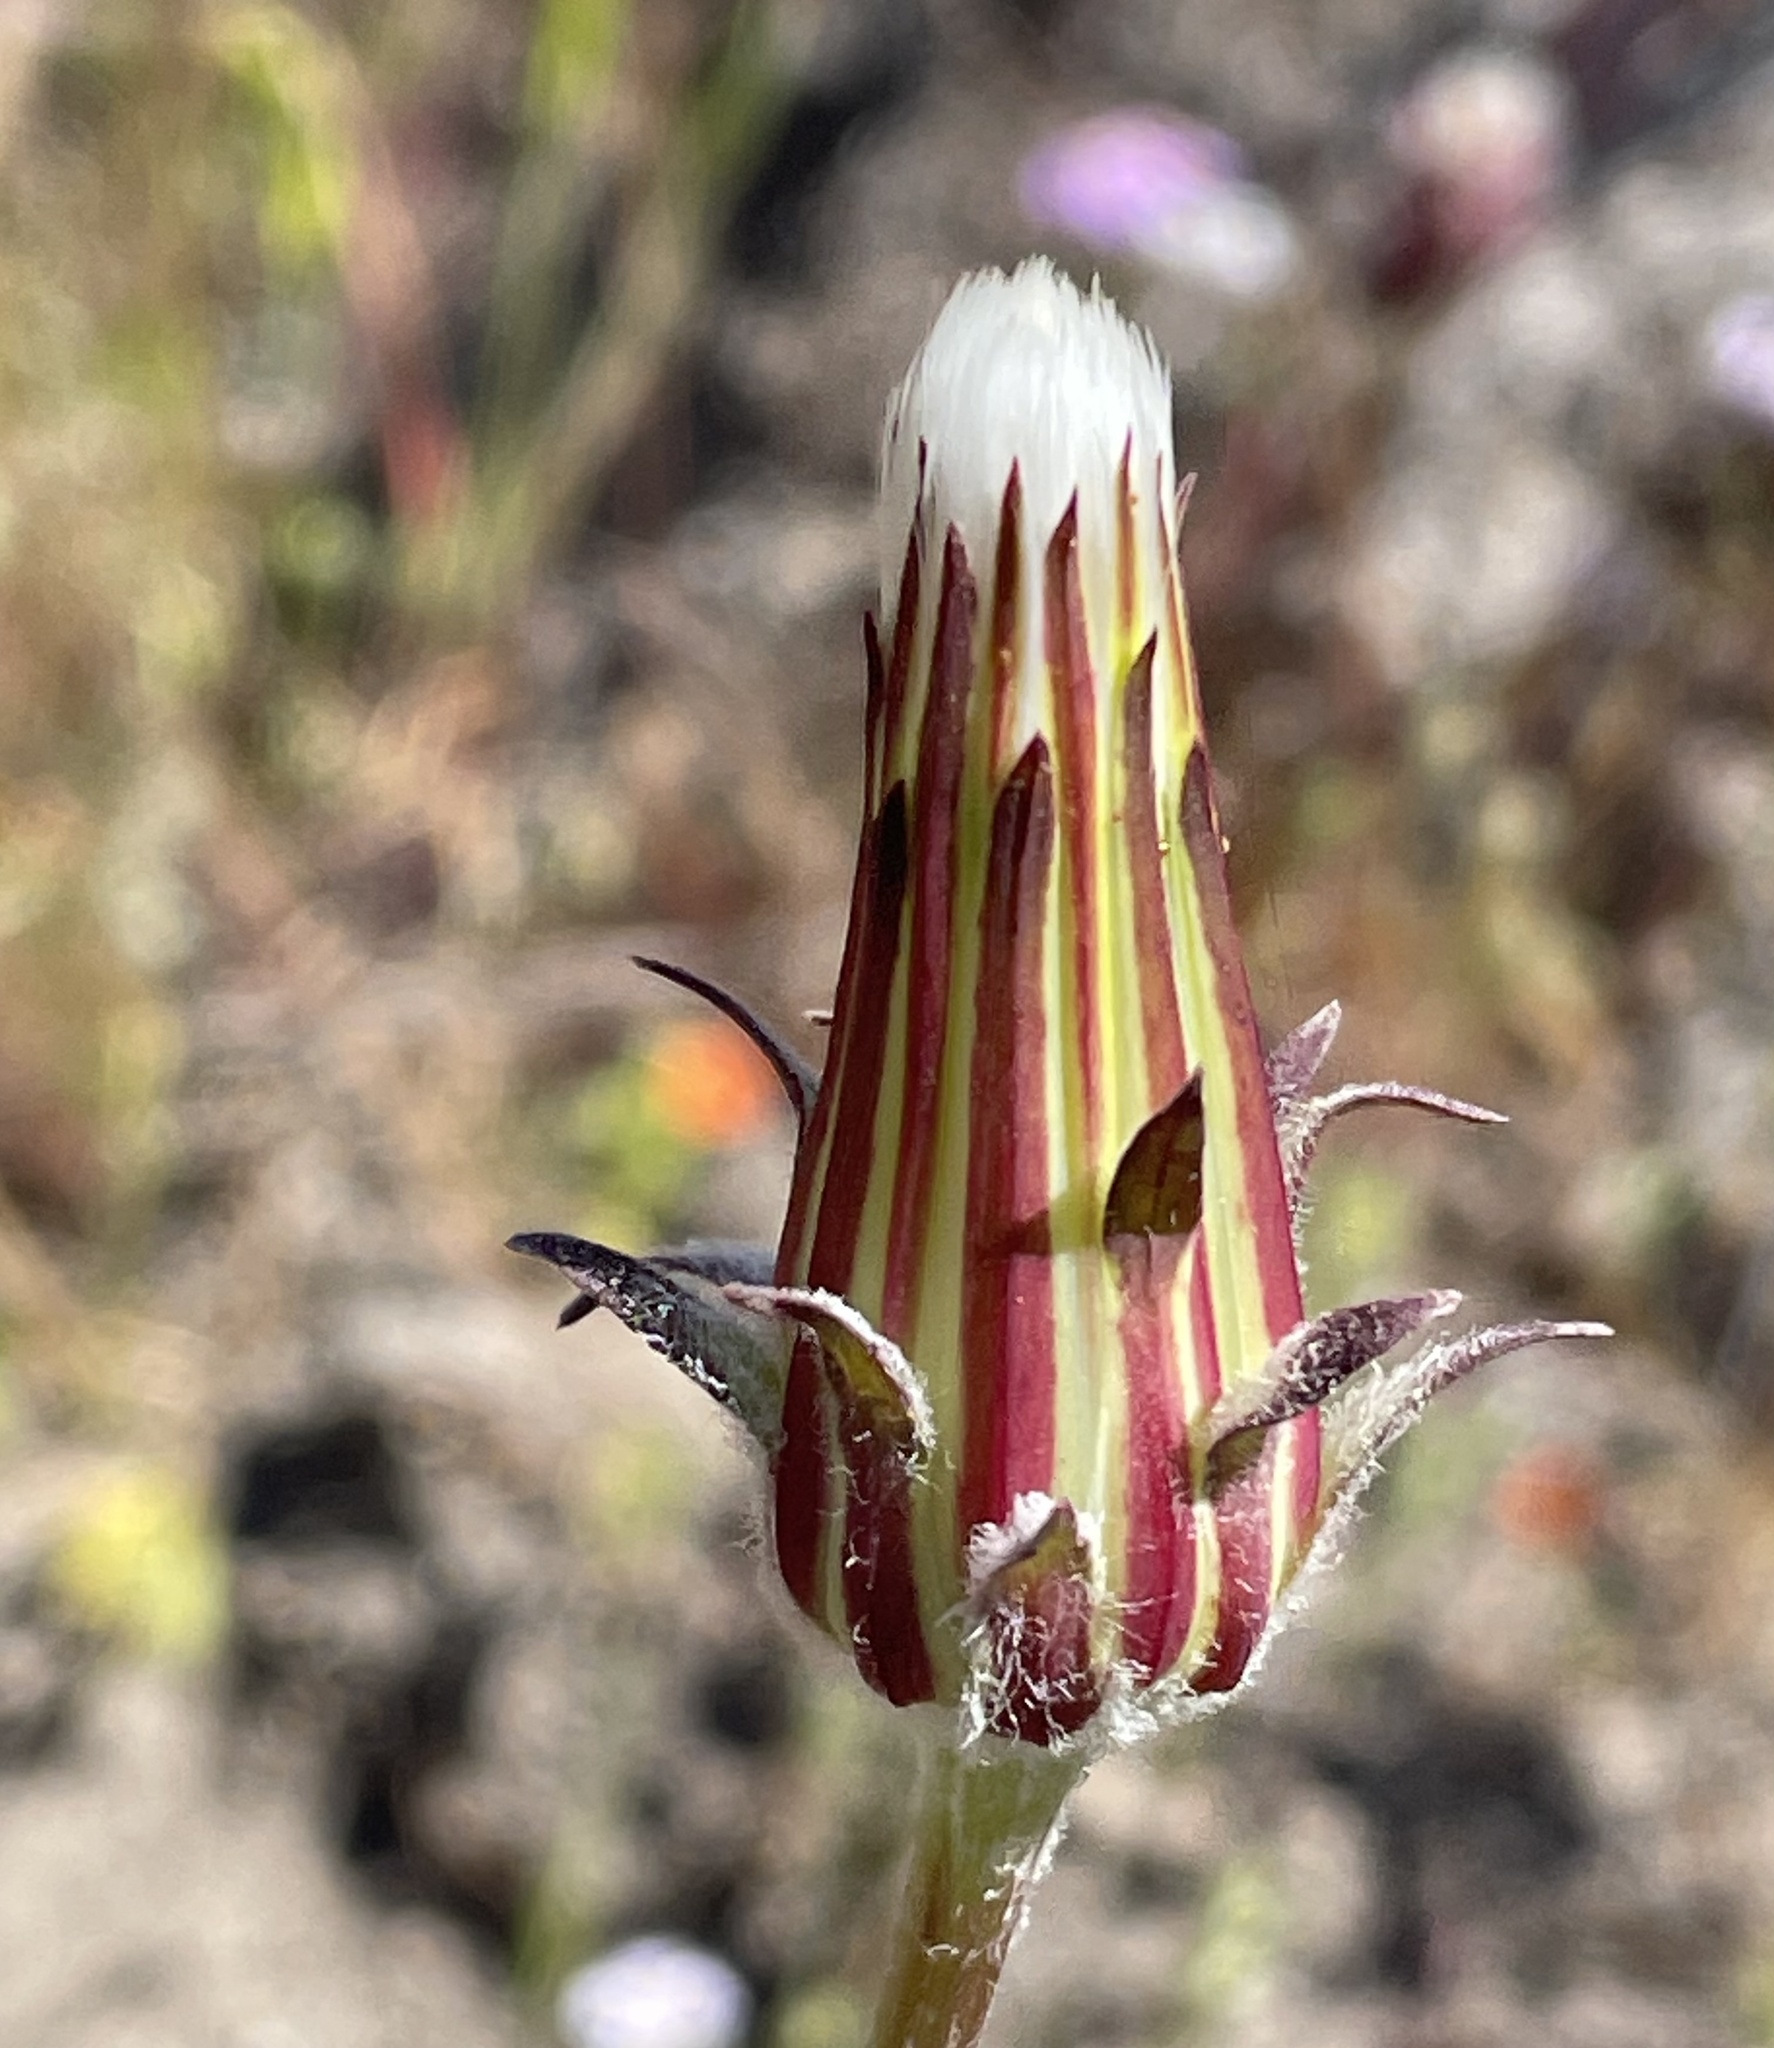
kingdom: Plantae
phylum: Tracheophyta
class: Magnoliopsida
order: Asterales
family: Asteraceae
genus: Agoseris
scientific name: Agoseris grandiflora
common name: Grassland agoseris
